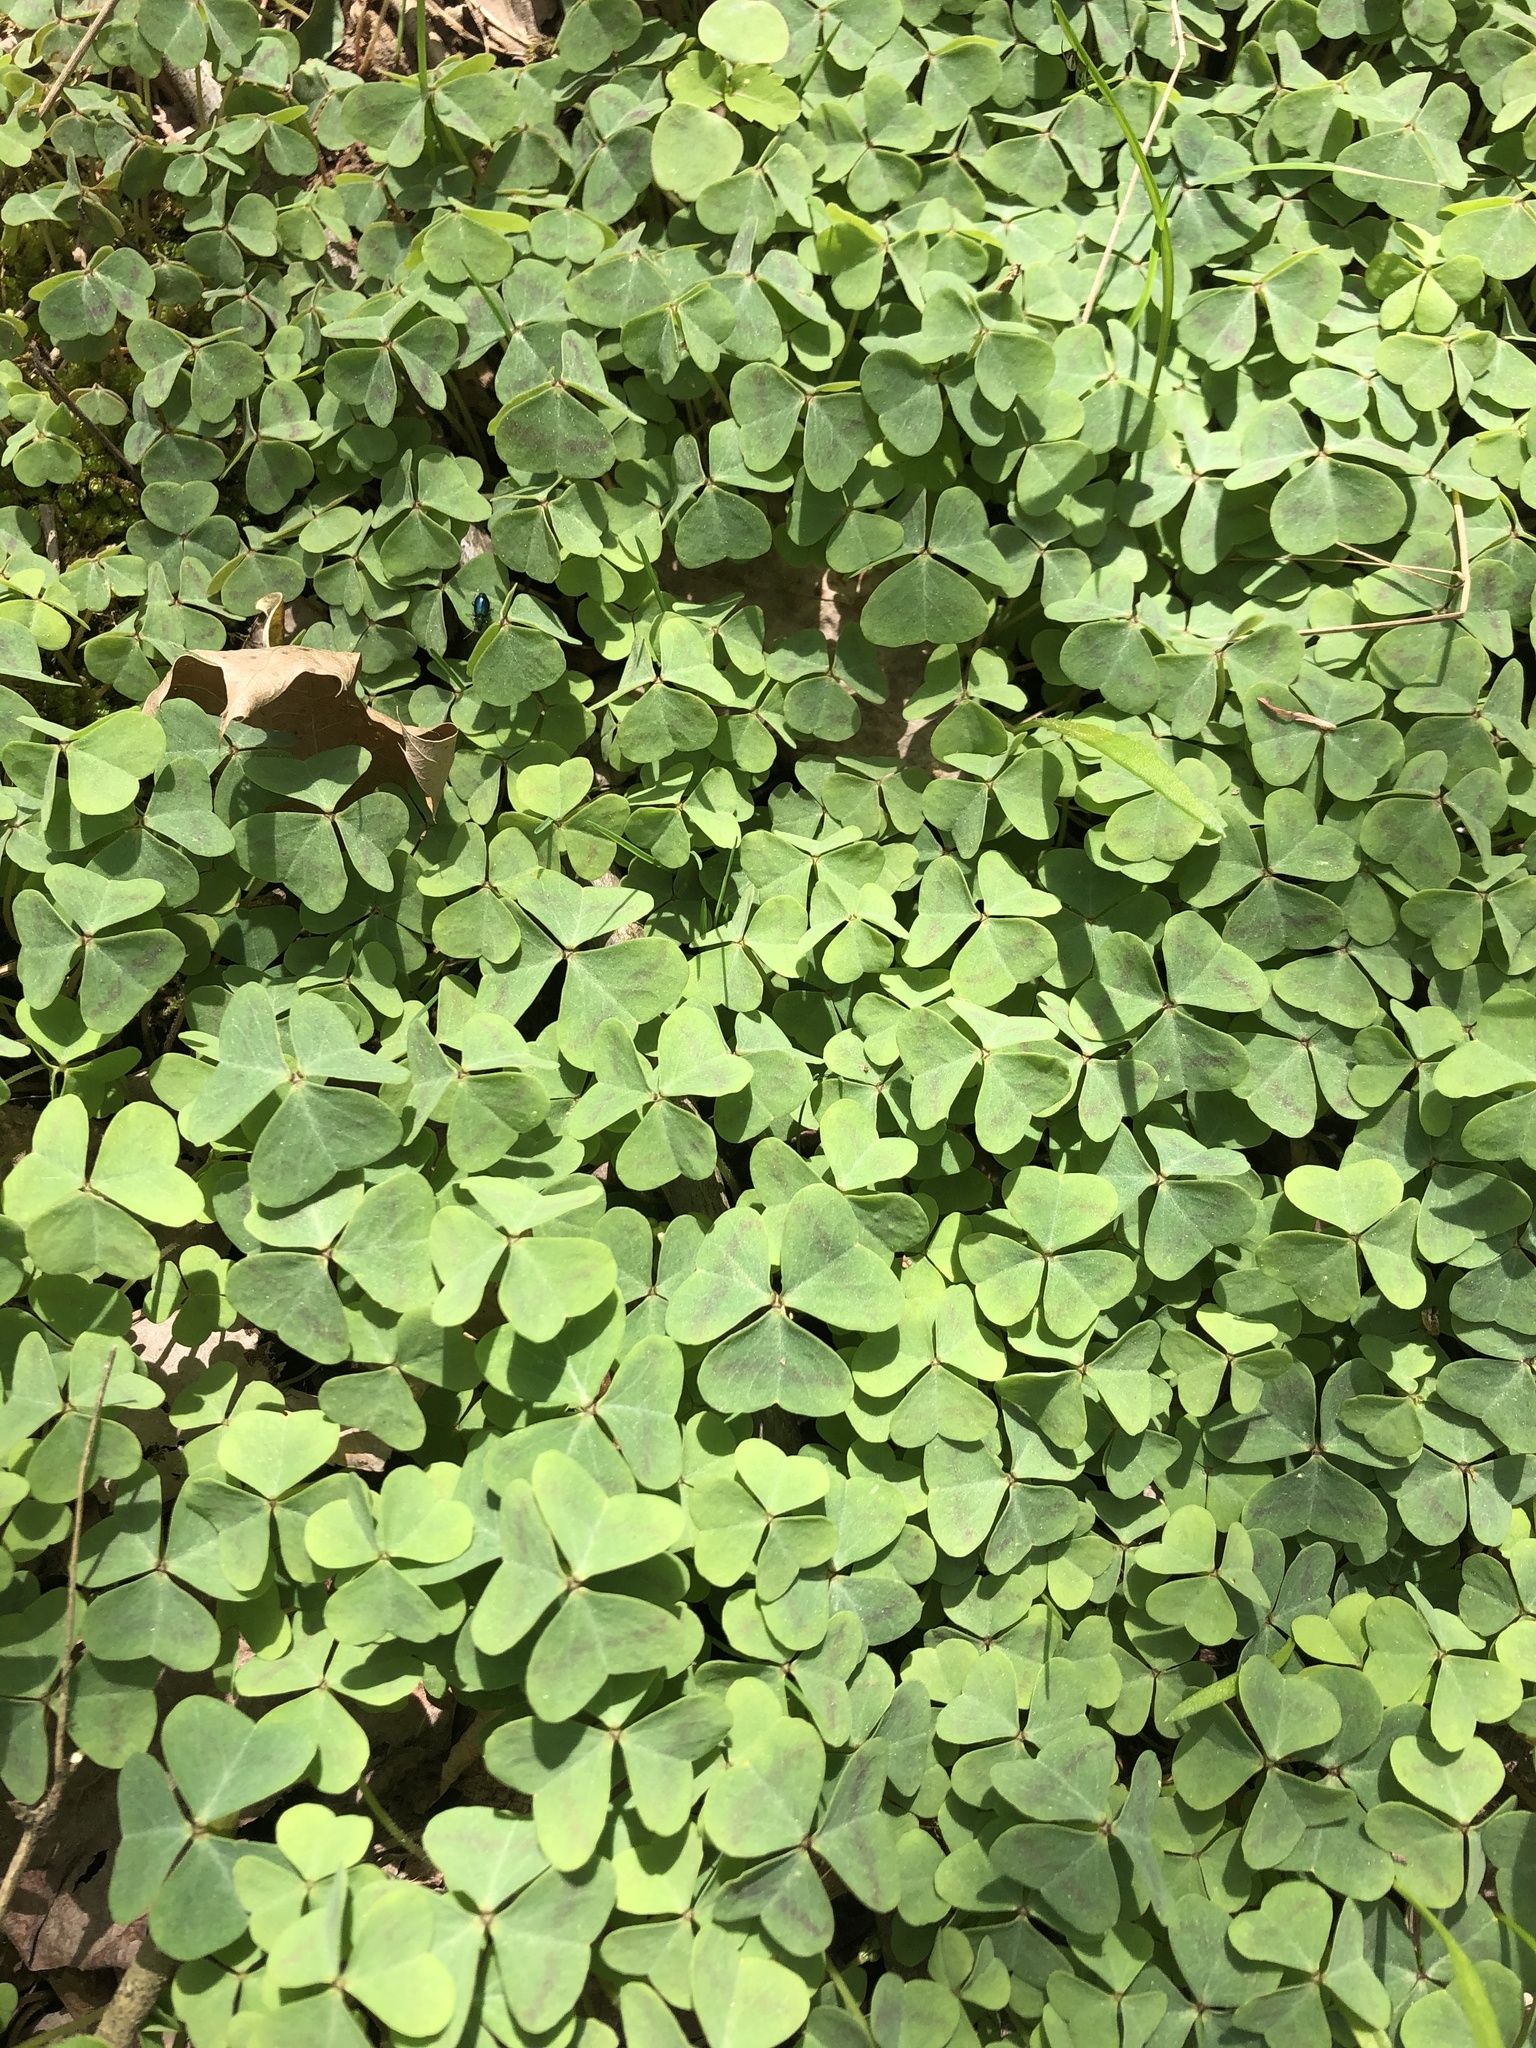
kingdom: Plantae
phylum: Tracheophyta
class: Magnoliopsida
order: Oxalidales
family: Oxalidaceae
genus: Oxalis
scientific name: Oxalis violacea
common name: Violet wood-sorrel
